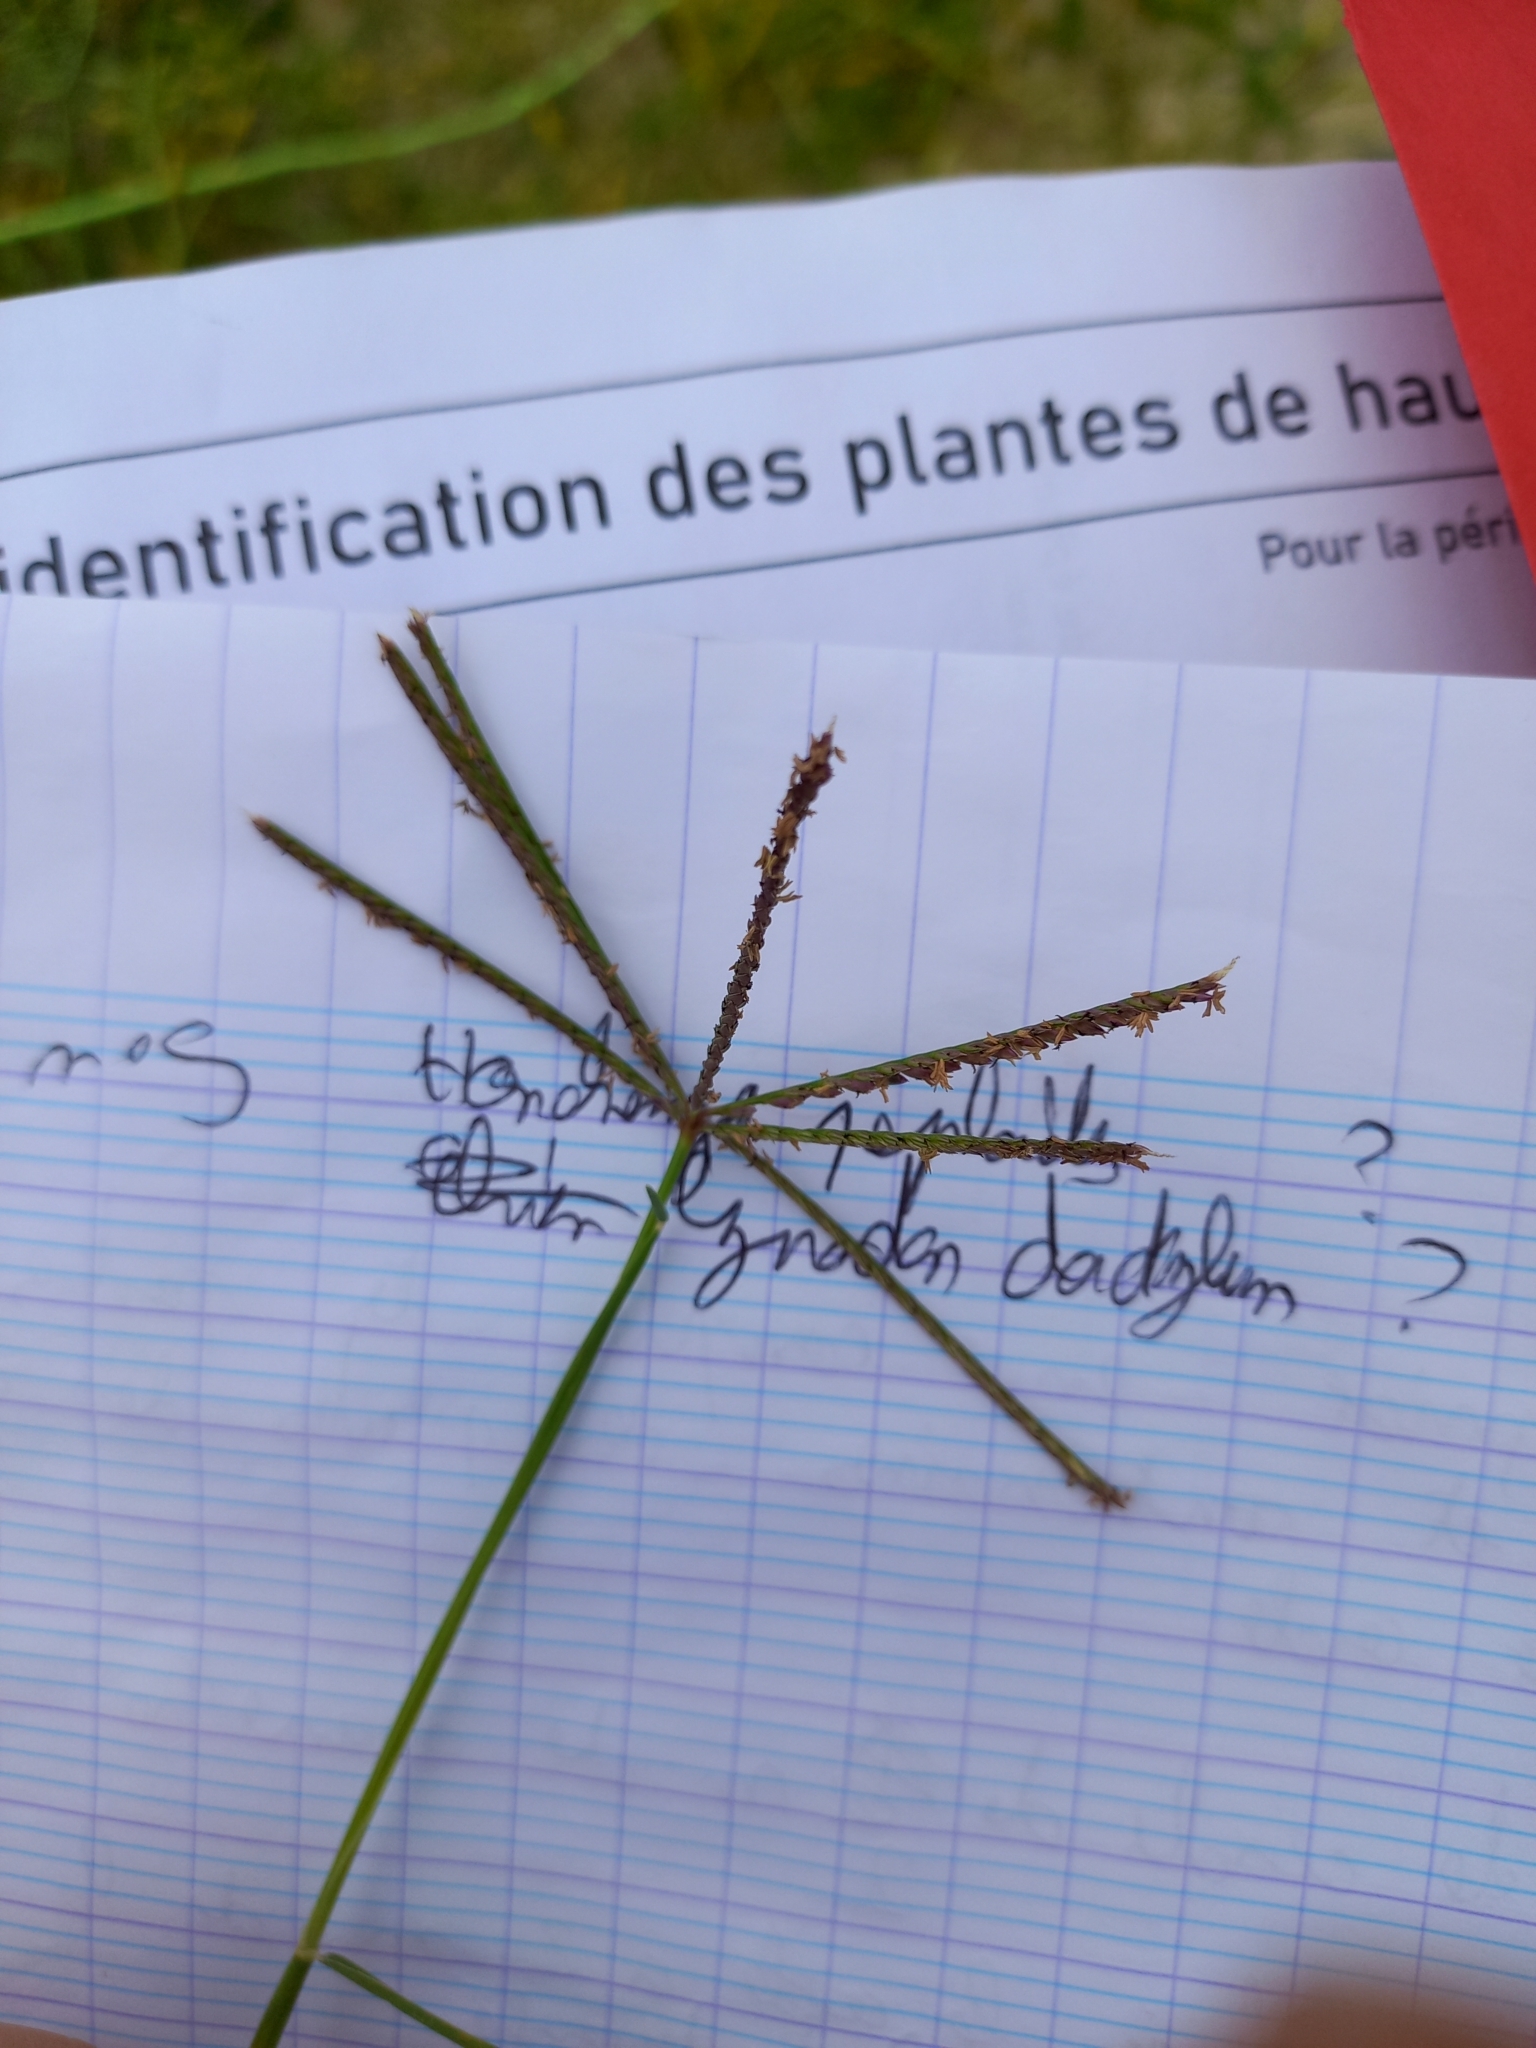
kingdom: Plantae
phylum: Tracheophyta
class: Liliopsida
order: Poales
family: Poaceae
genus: Cynodon
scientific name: Cynodon dactylon
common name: Bermuda grass
